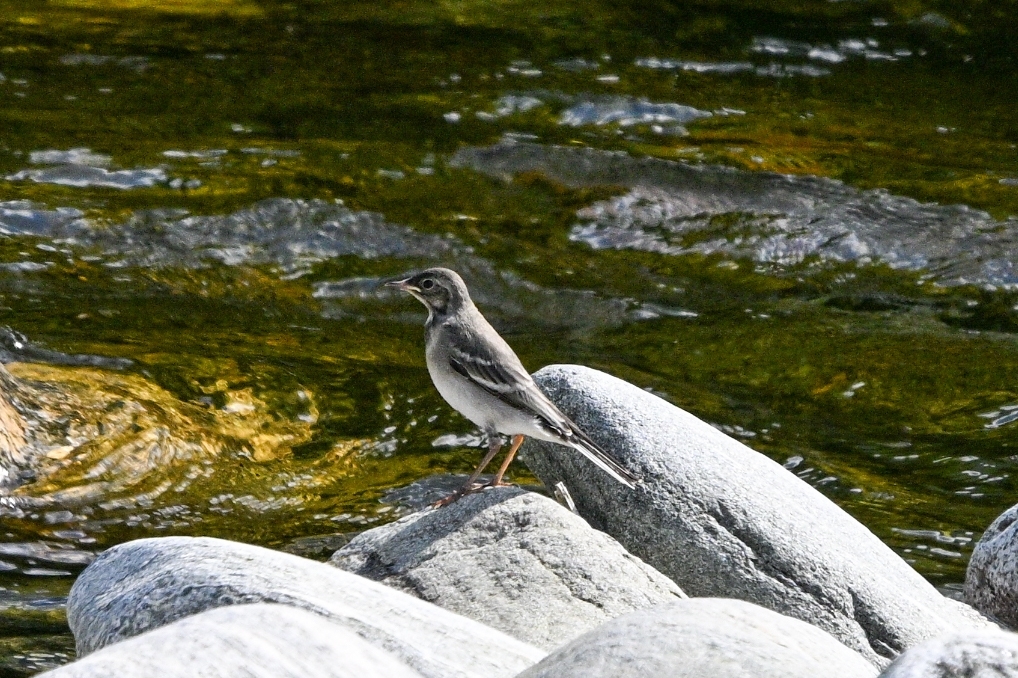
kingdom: Animalia
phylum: Chordata
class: Aves
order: Passeriformes
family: Motacillidae
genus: Motacilla
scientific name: Motacilla alba
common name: White wagtail
